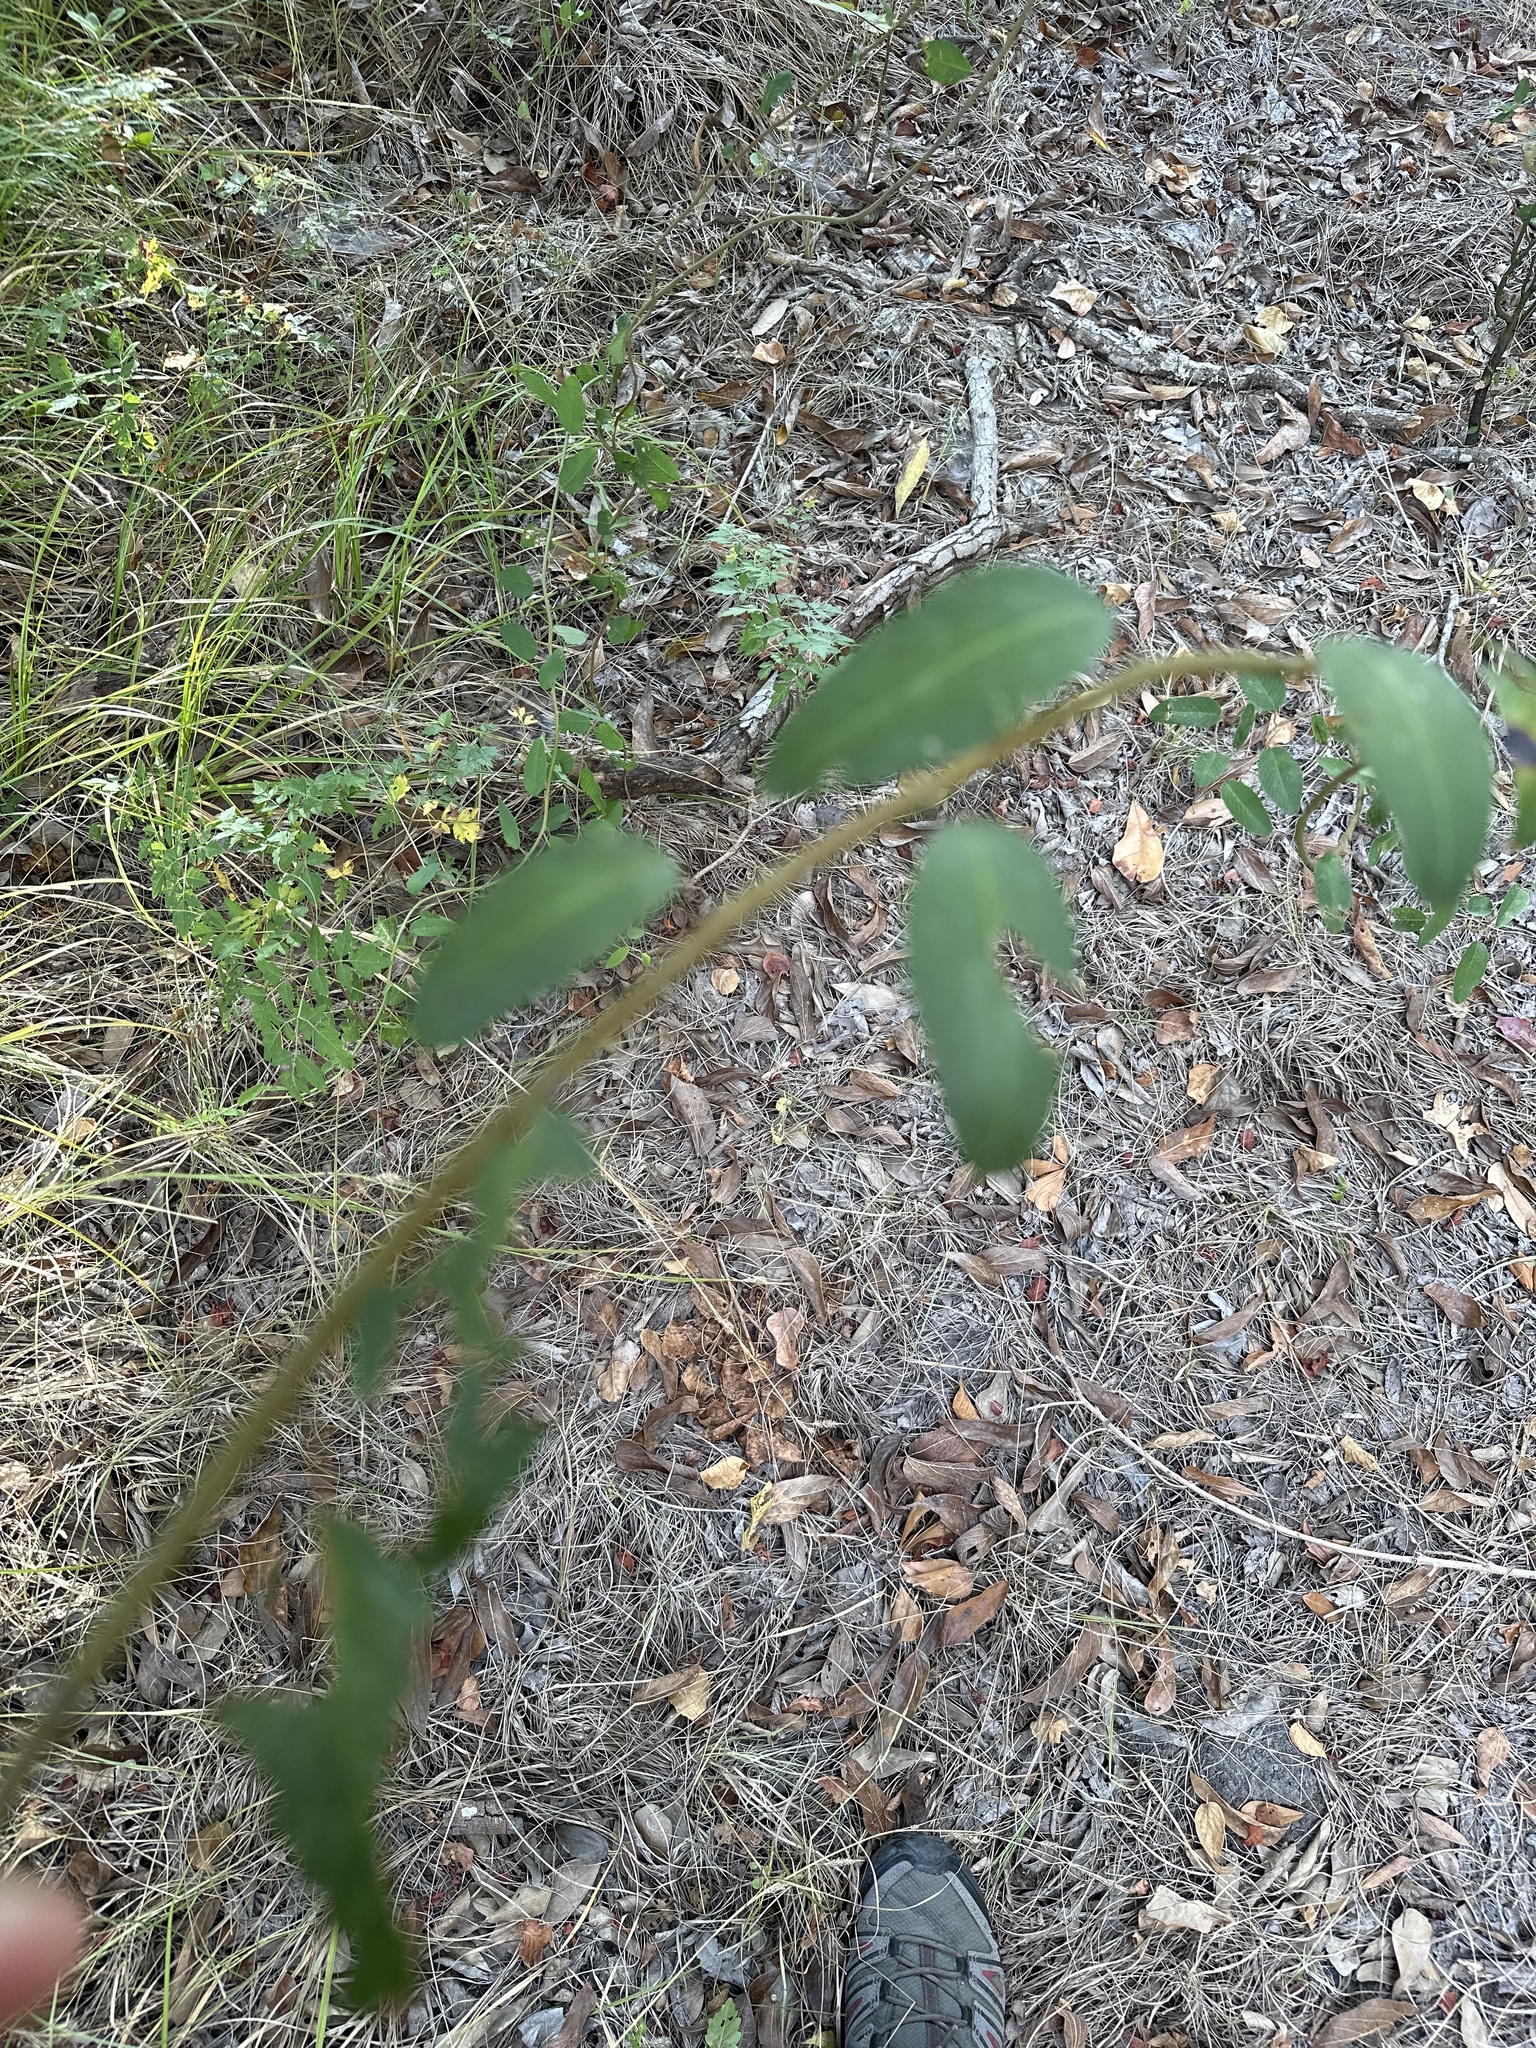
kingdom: Plantae
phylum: Tracheophyta
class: Magnoliopsida
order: Rosales
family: Rhamnaceae
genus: Berchemia
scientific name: Berchemia scandens
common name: Supplejack
